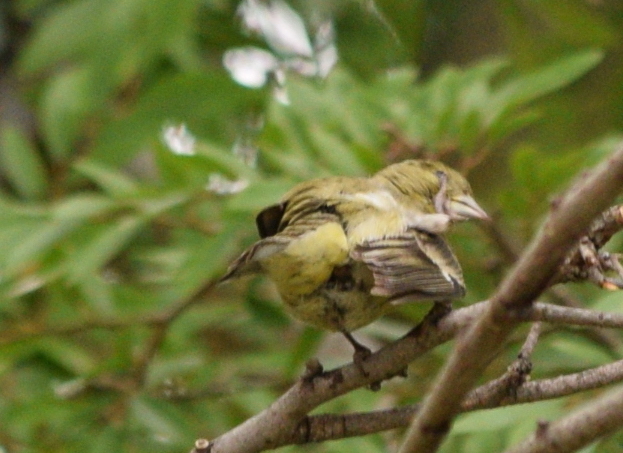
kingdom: Animalia
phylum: Chordata
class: Aves
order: Passeriformes
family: Fringillidae
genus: Spinus
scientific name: Spinus psaltria
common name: Lesser goldfinch
